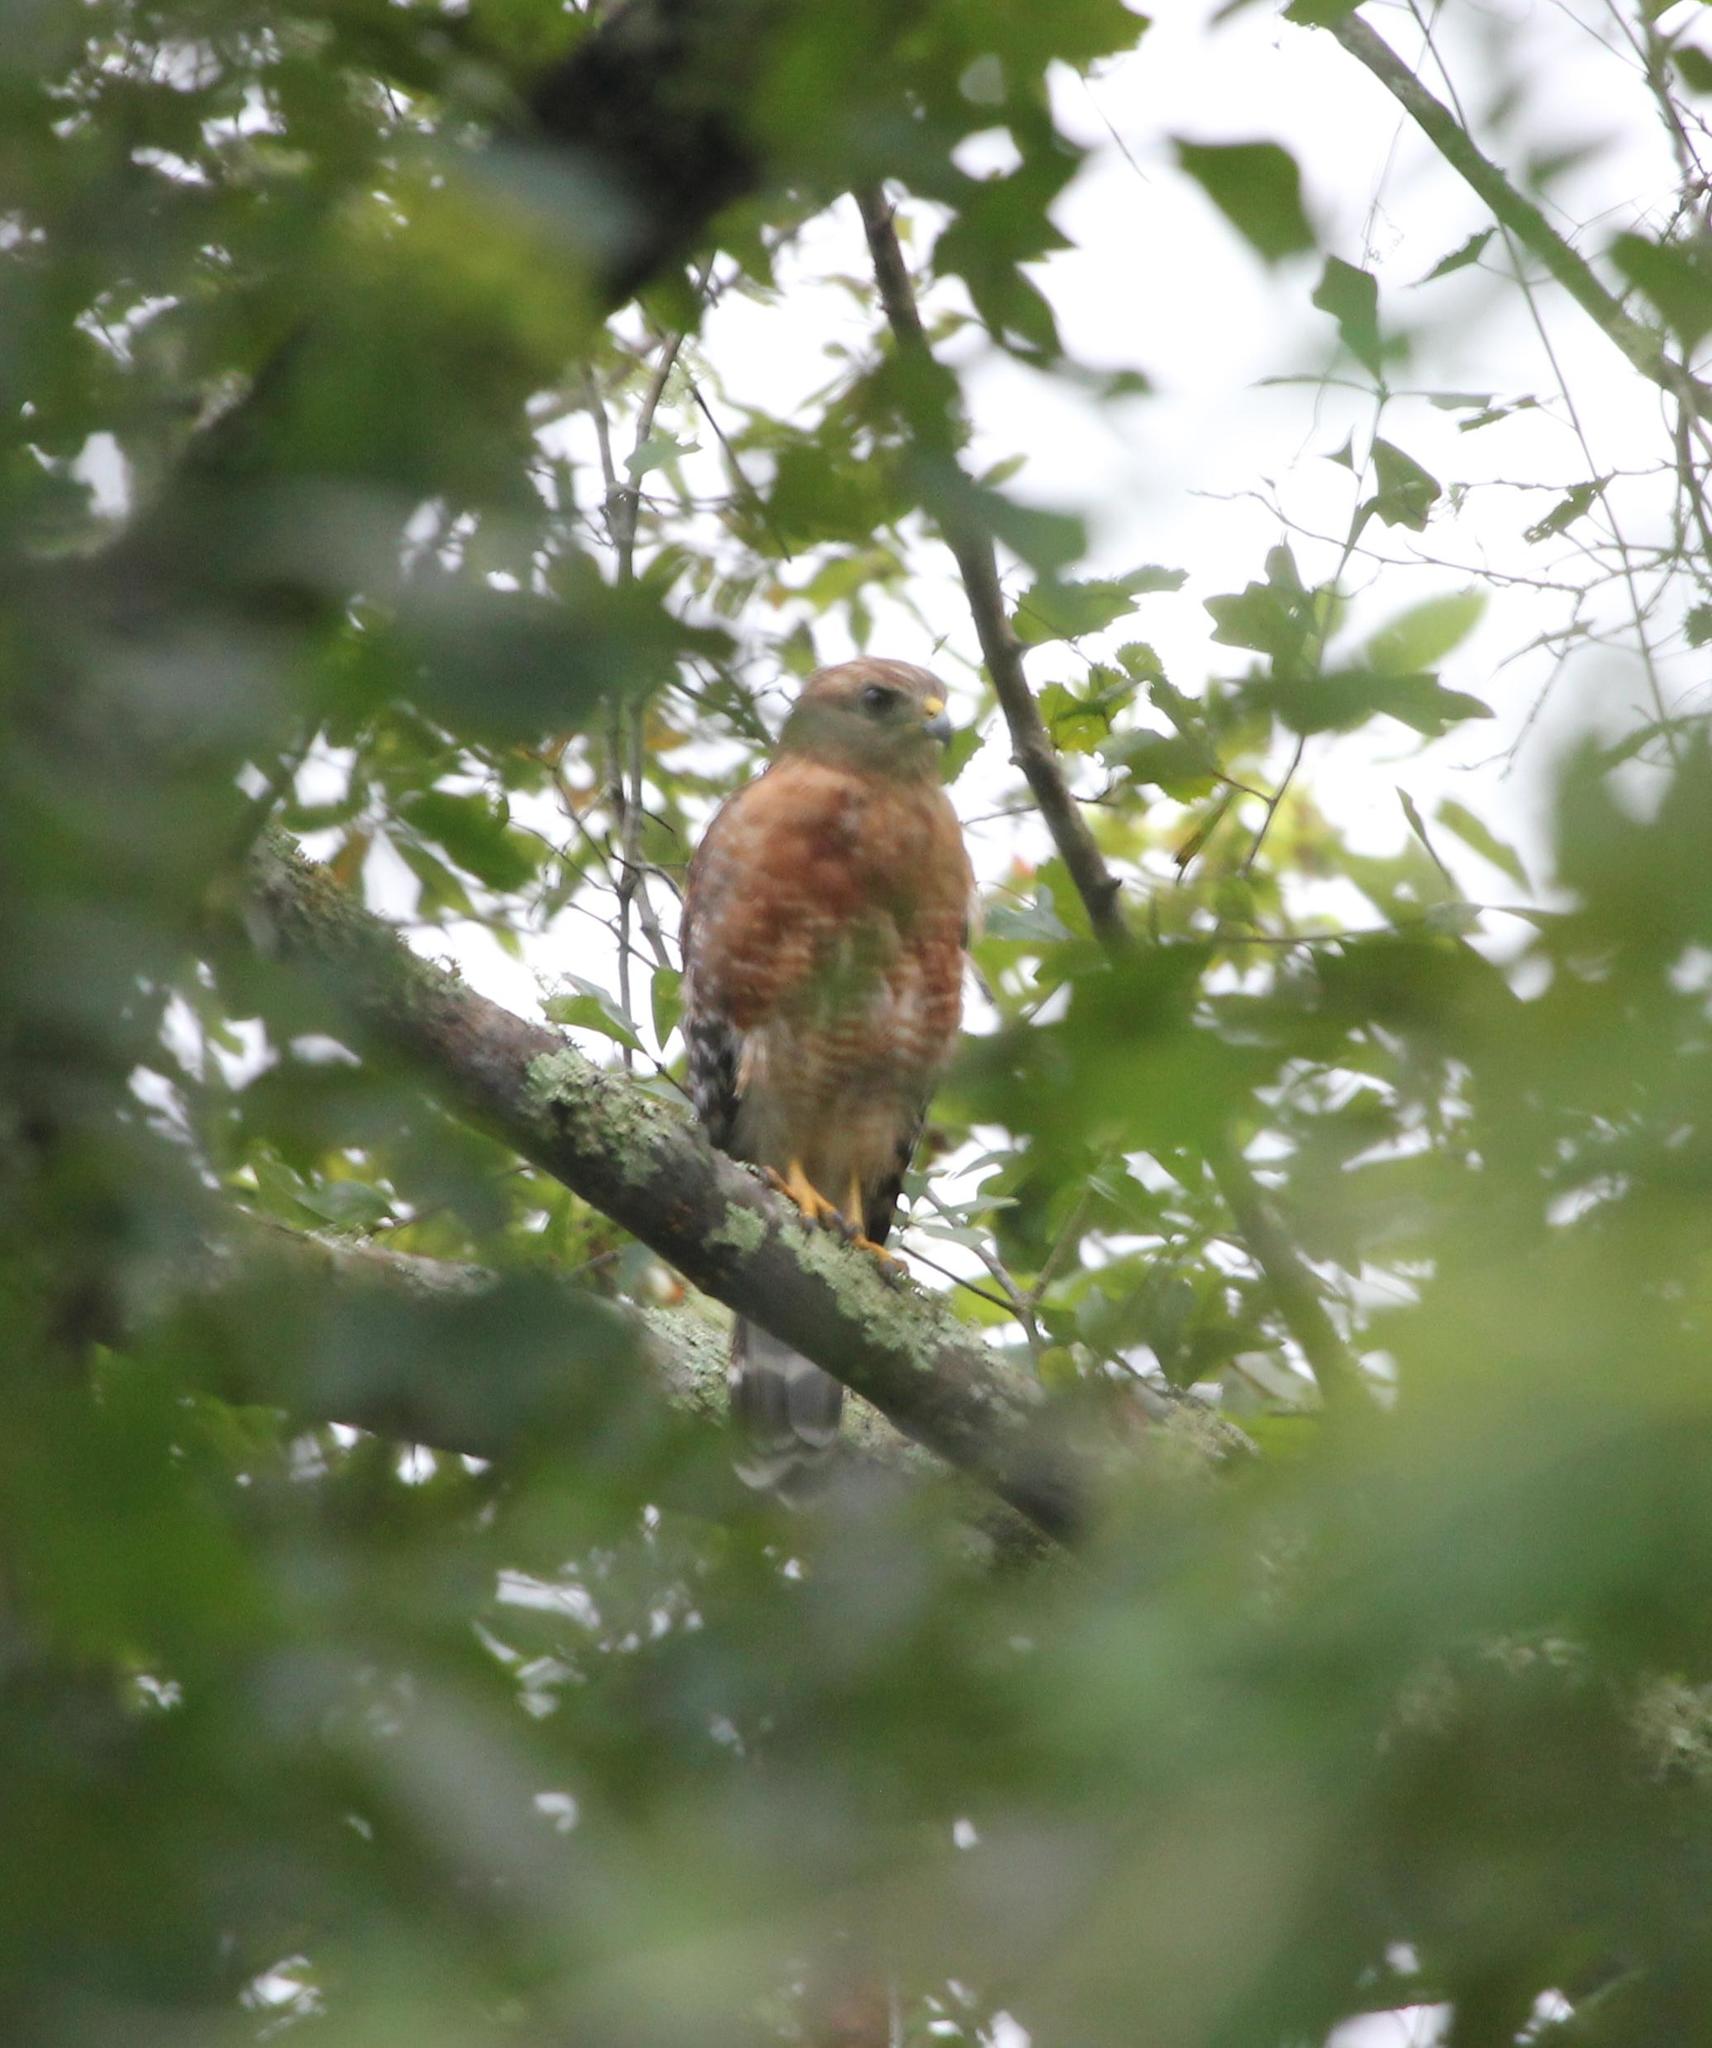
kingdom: Animalia
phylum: Chordata
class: Aves
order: Accipitriformes
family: Accipitridae
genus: Buteo
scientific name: Buteo lineatus
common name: Red-shouldered hawk
